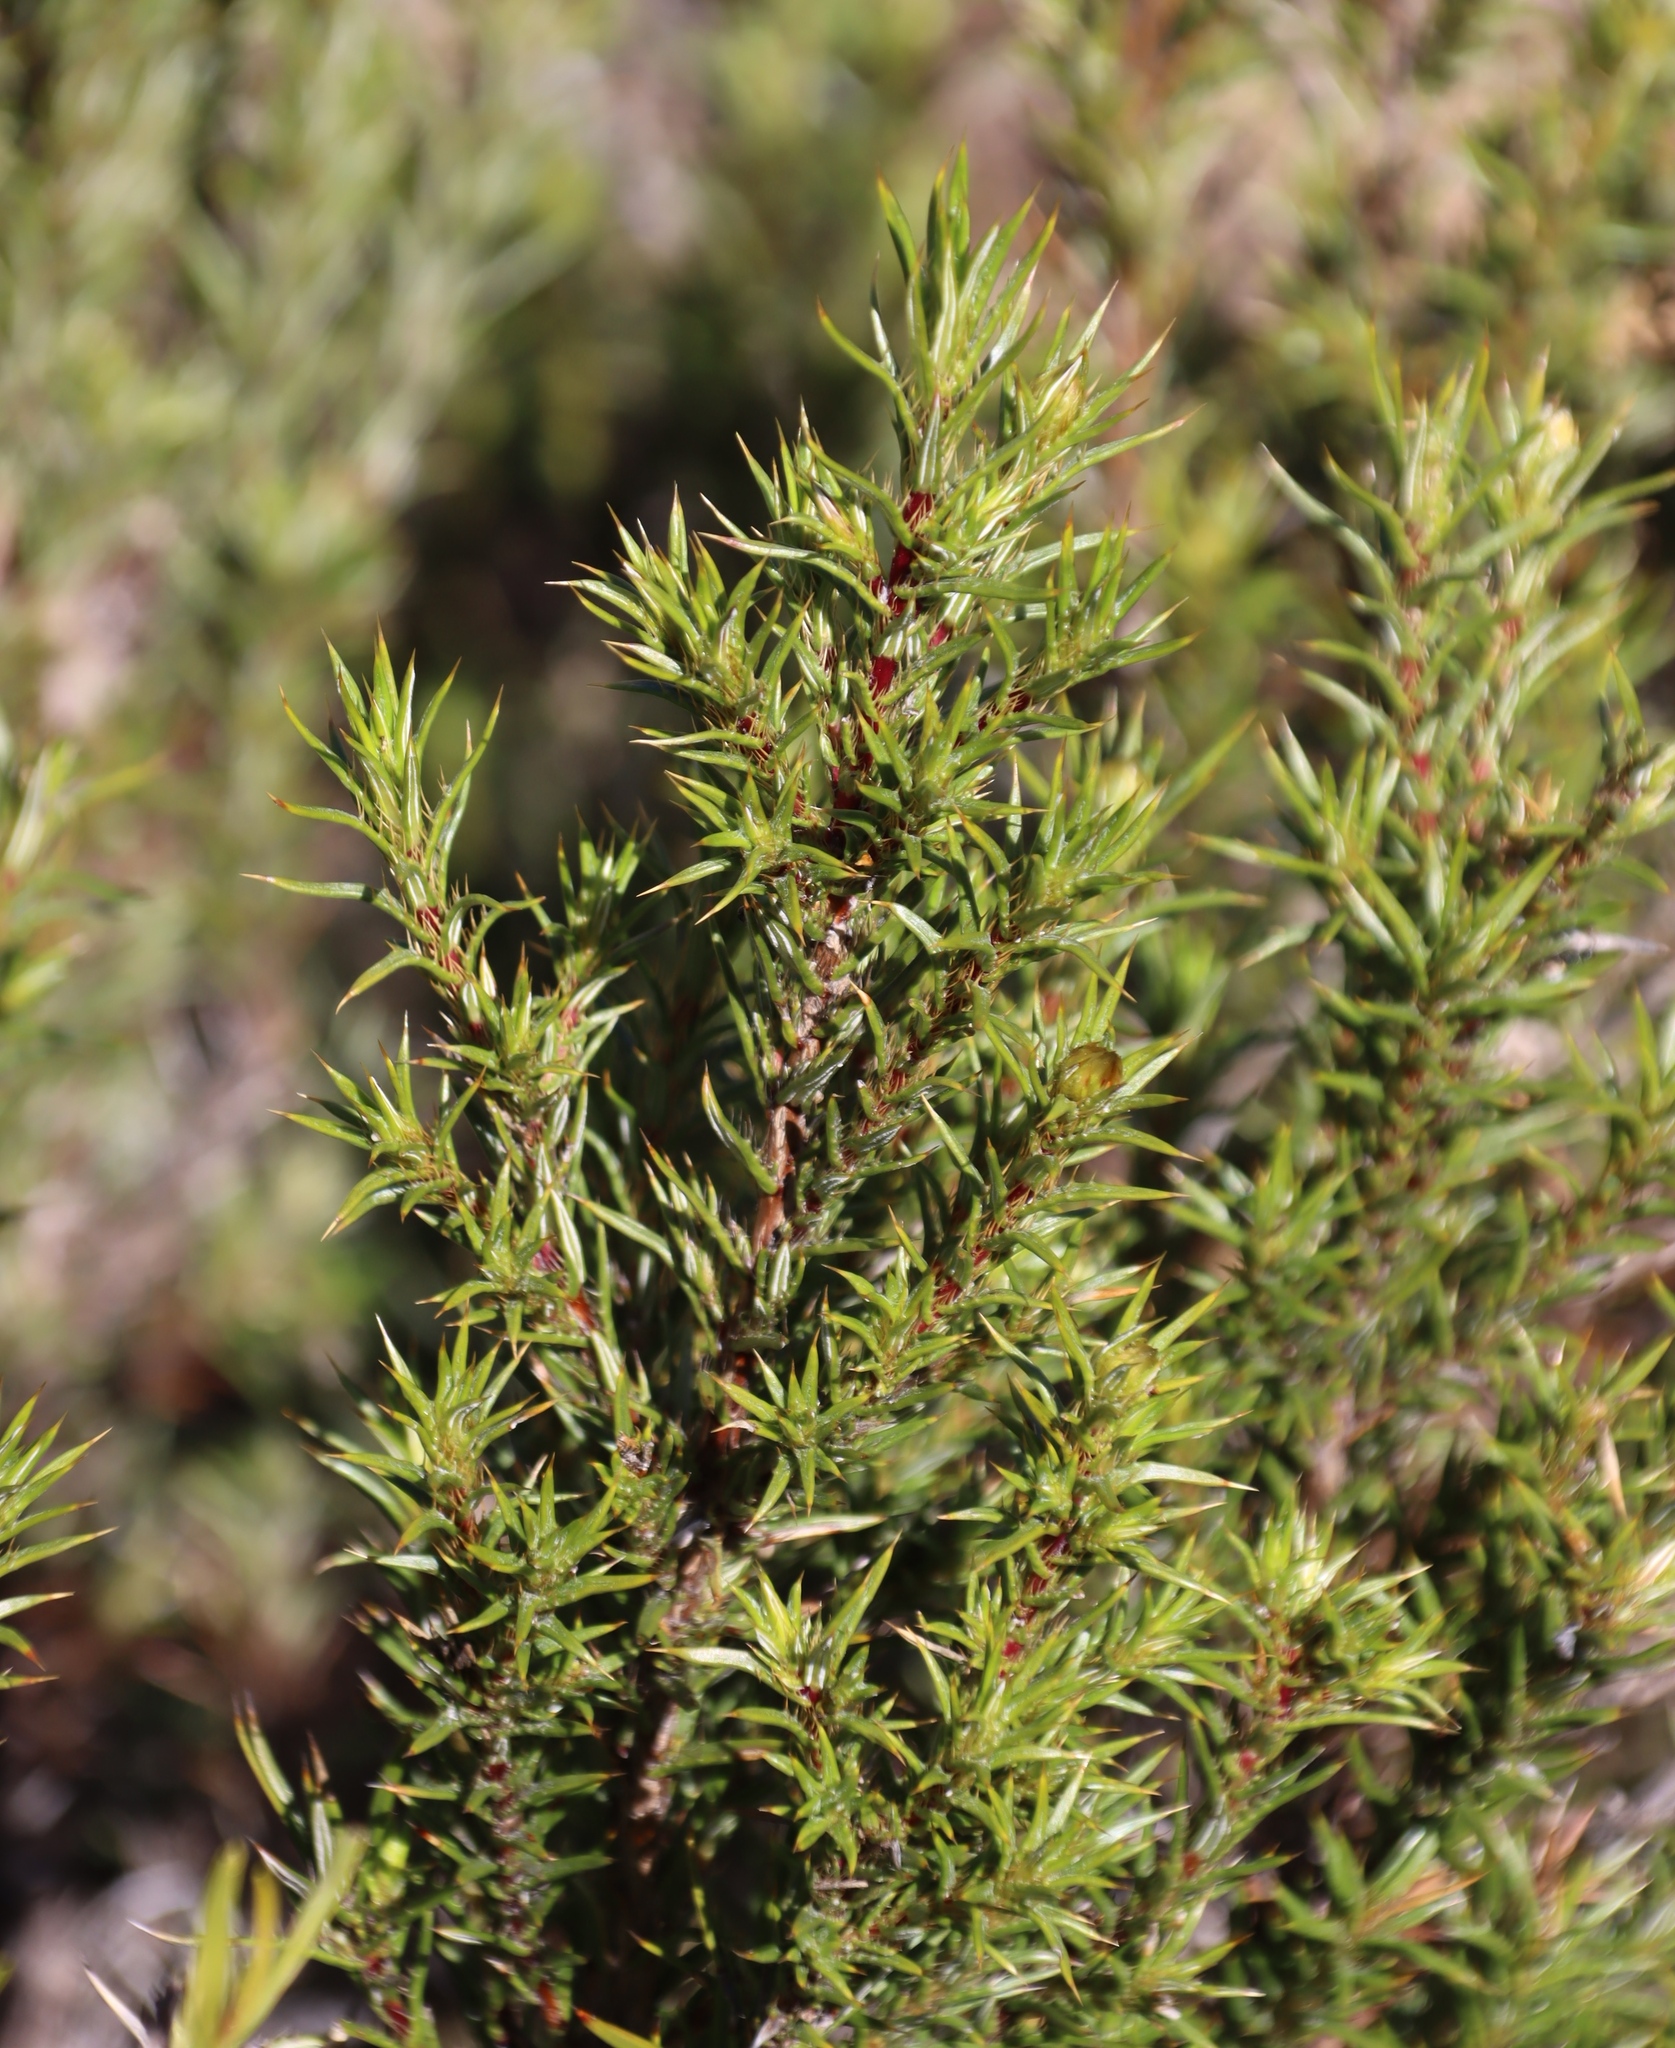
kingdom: Plantae
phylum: Tracheophyta
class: Magnoliopsida
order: Rosales
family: Rosaceae
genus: Cliffortia
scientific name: Cliffortia ruscifolia
